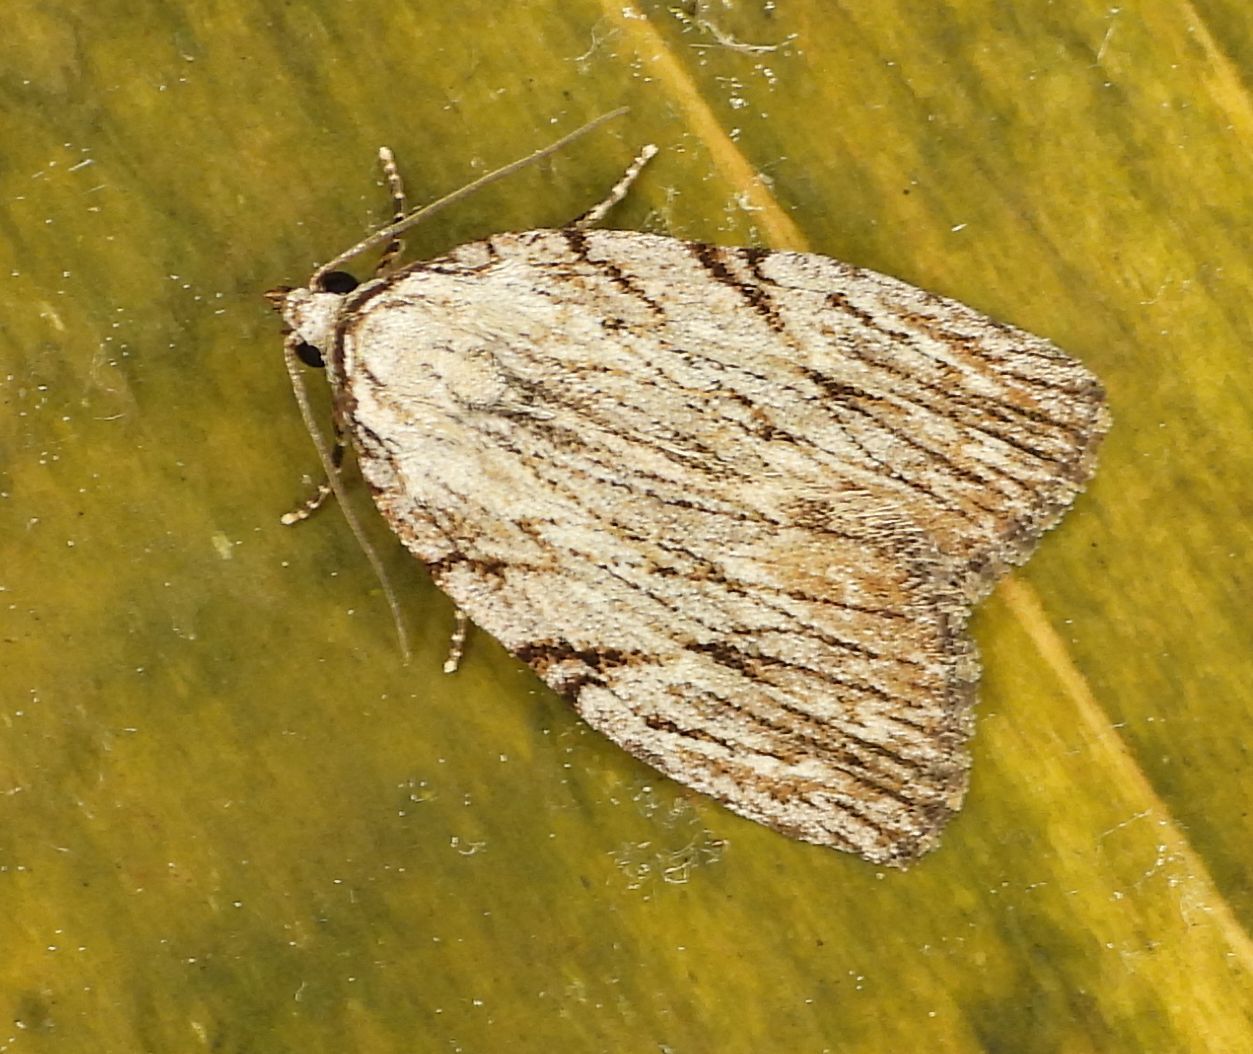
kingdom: Animalia
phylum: Arthropoda
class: Insecta
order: Lepidoptera
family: Noctuidae
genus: Balsa
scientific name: Balsa tristrigella
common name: Three-lined balsa moth
